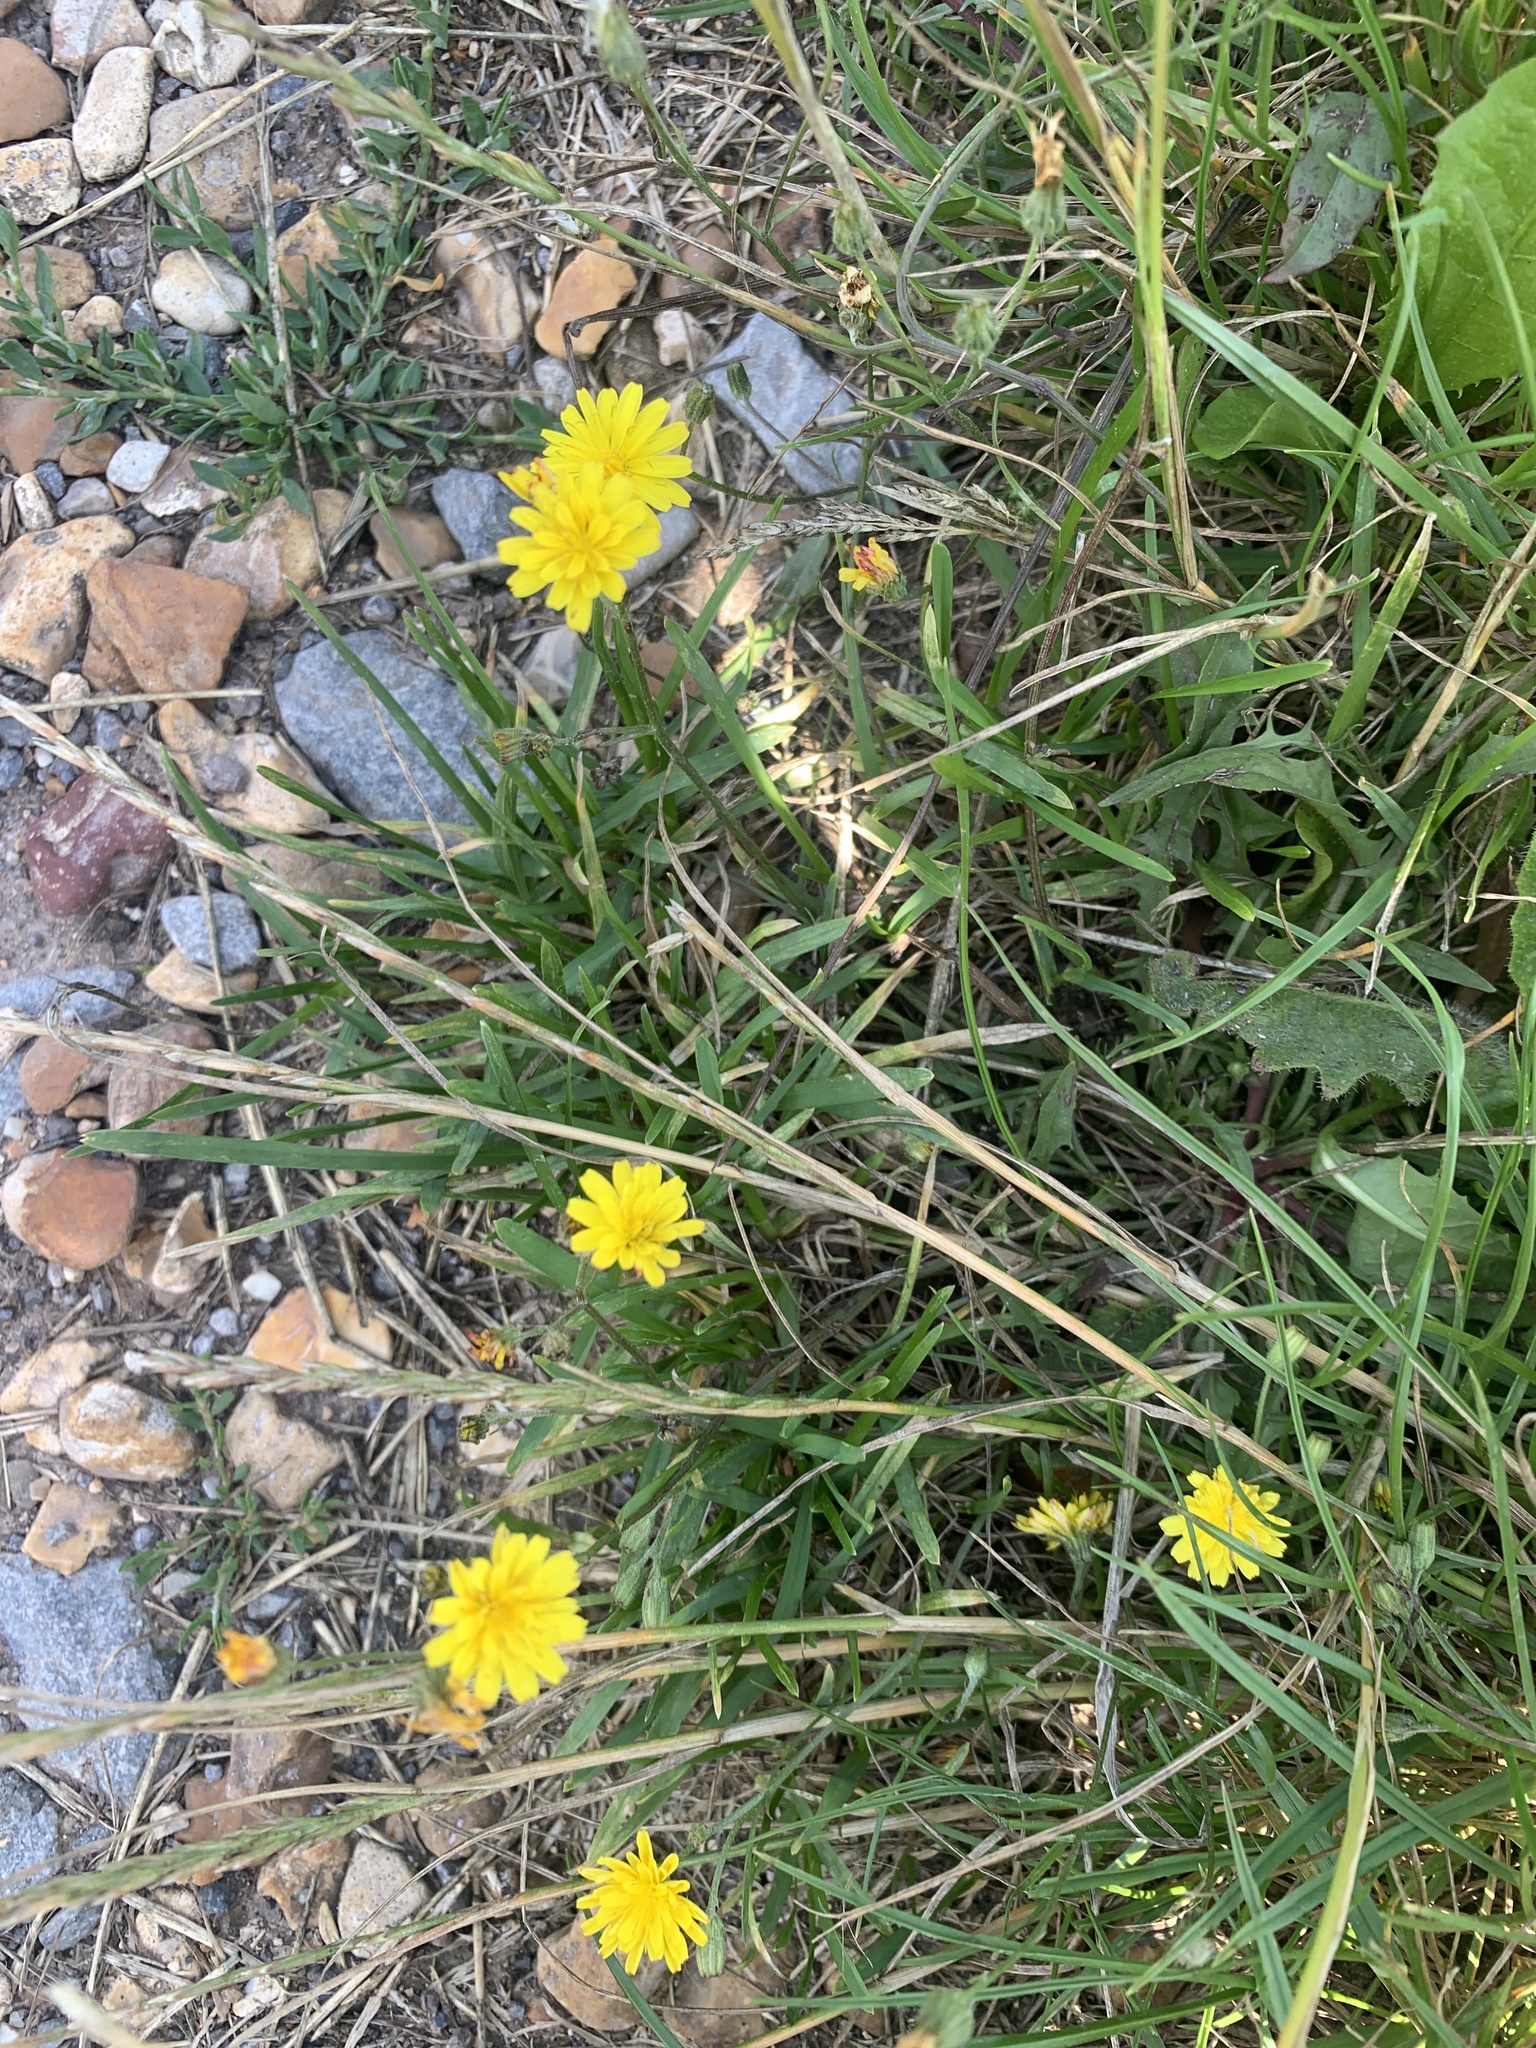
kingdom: Plantae
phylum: Tracheophyta
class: Magnoliopsida
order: Asterales
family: Asteraceae
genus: Scorzoneroides
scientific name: Scorzoneroides autumnalis
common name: Autumn hawkbit
